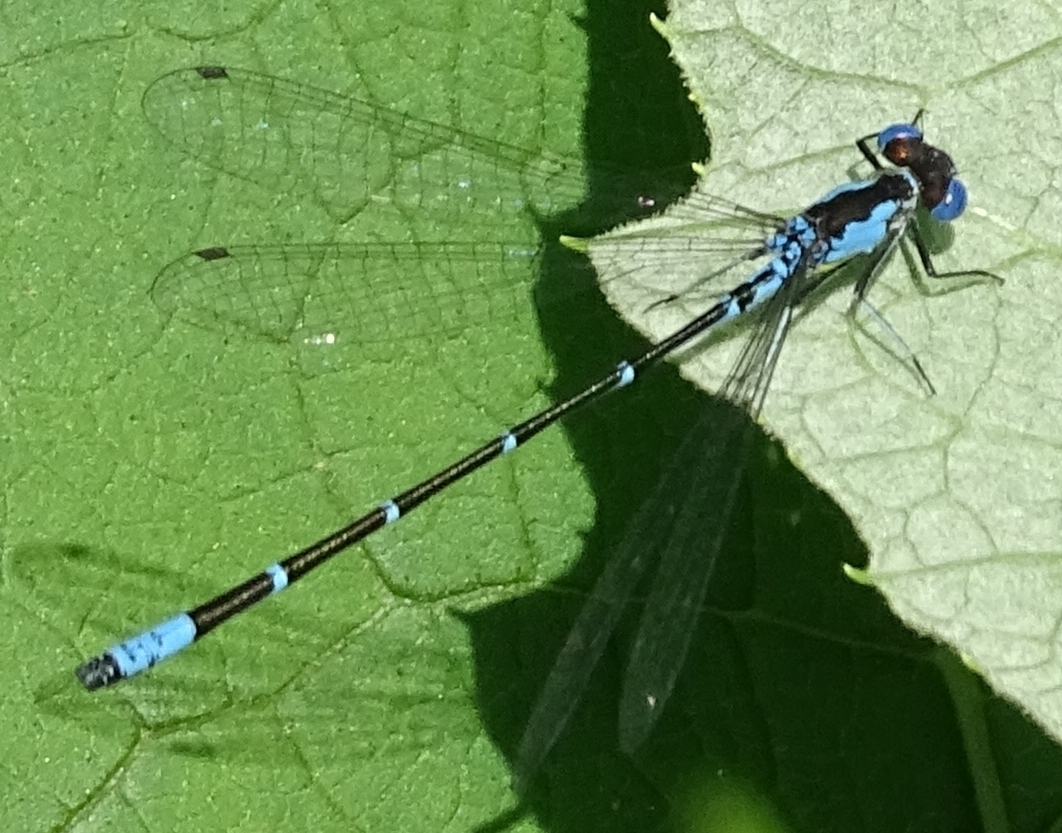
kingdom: Animalia
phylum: Arthropoda
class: Insecta
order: Odonata
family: Coenagrionidae
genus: Chromagrion
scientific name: Chromagrion conditum
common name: Aurora damsel
